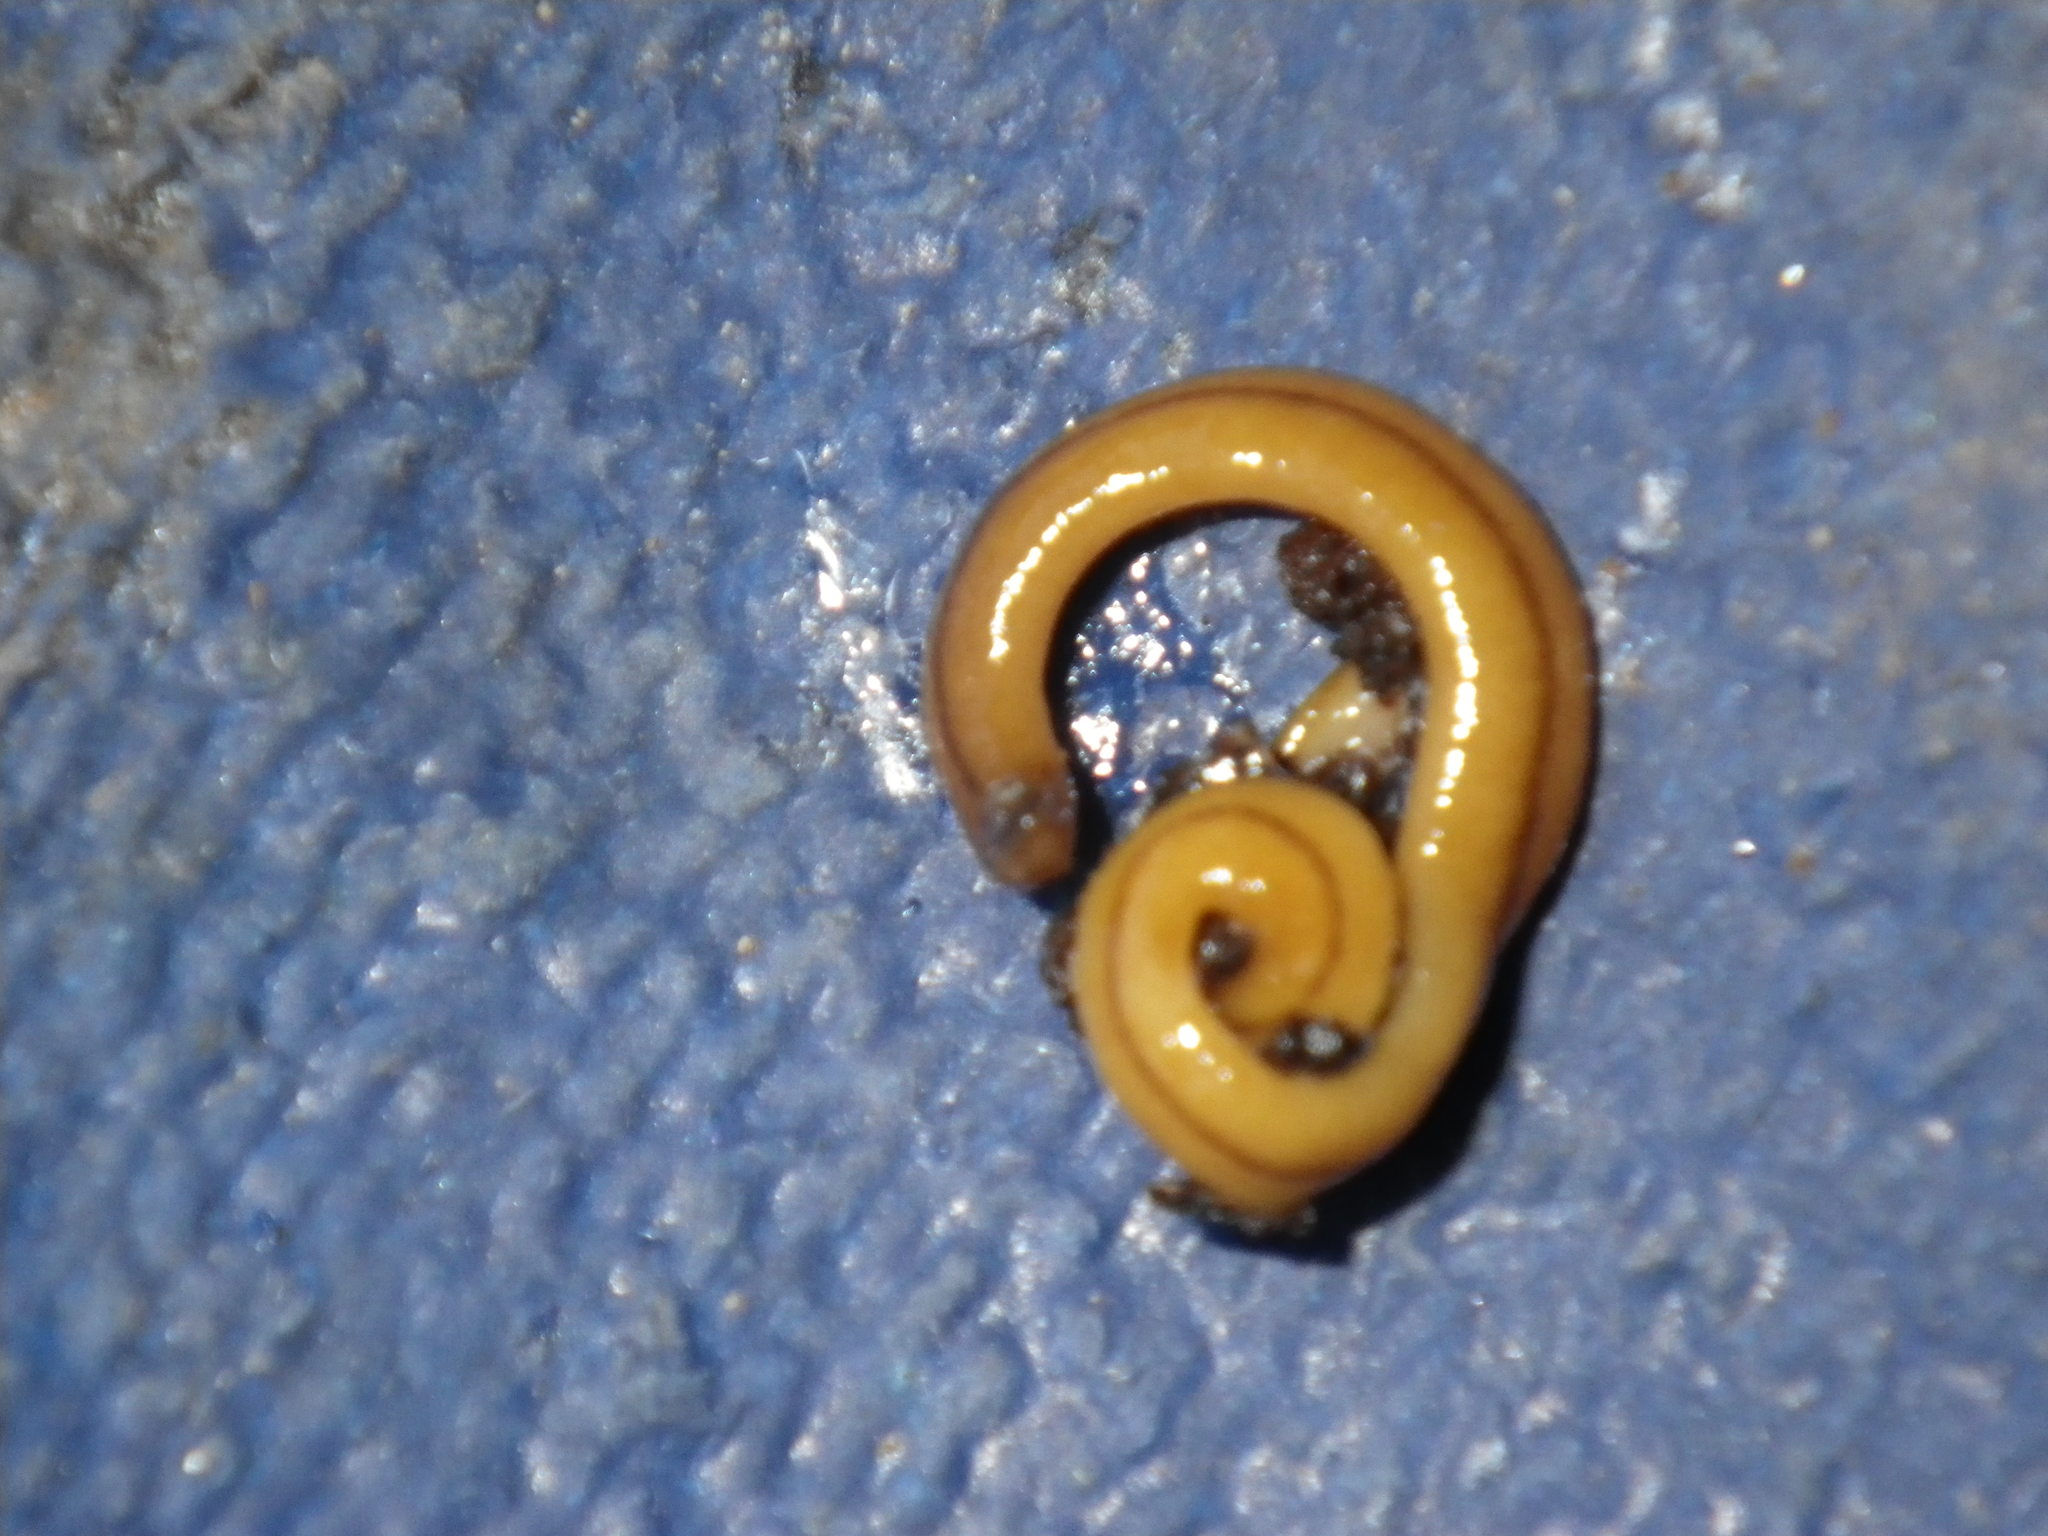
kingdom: Animalia
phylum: Platyhelminthes
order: Tricladida
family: Geoplanidae
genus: Bipalium
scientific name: Bipalium adventitium
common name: Land planarian
